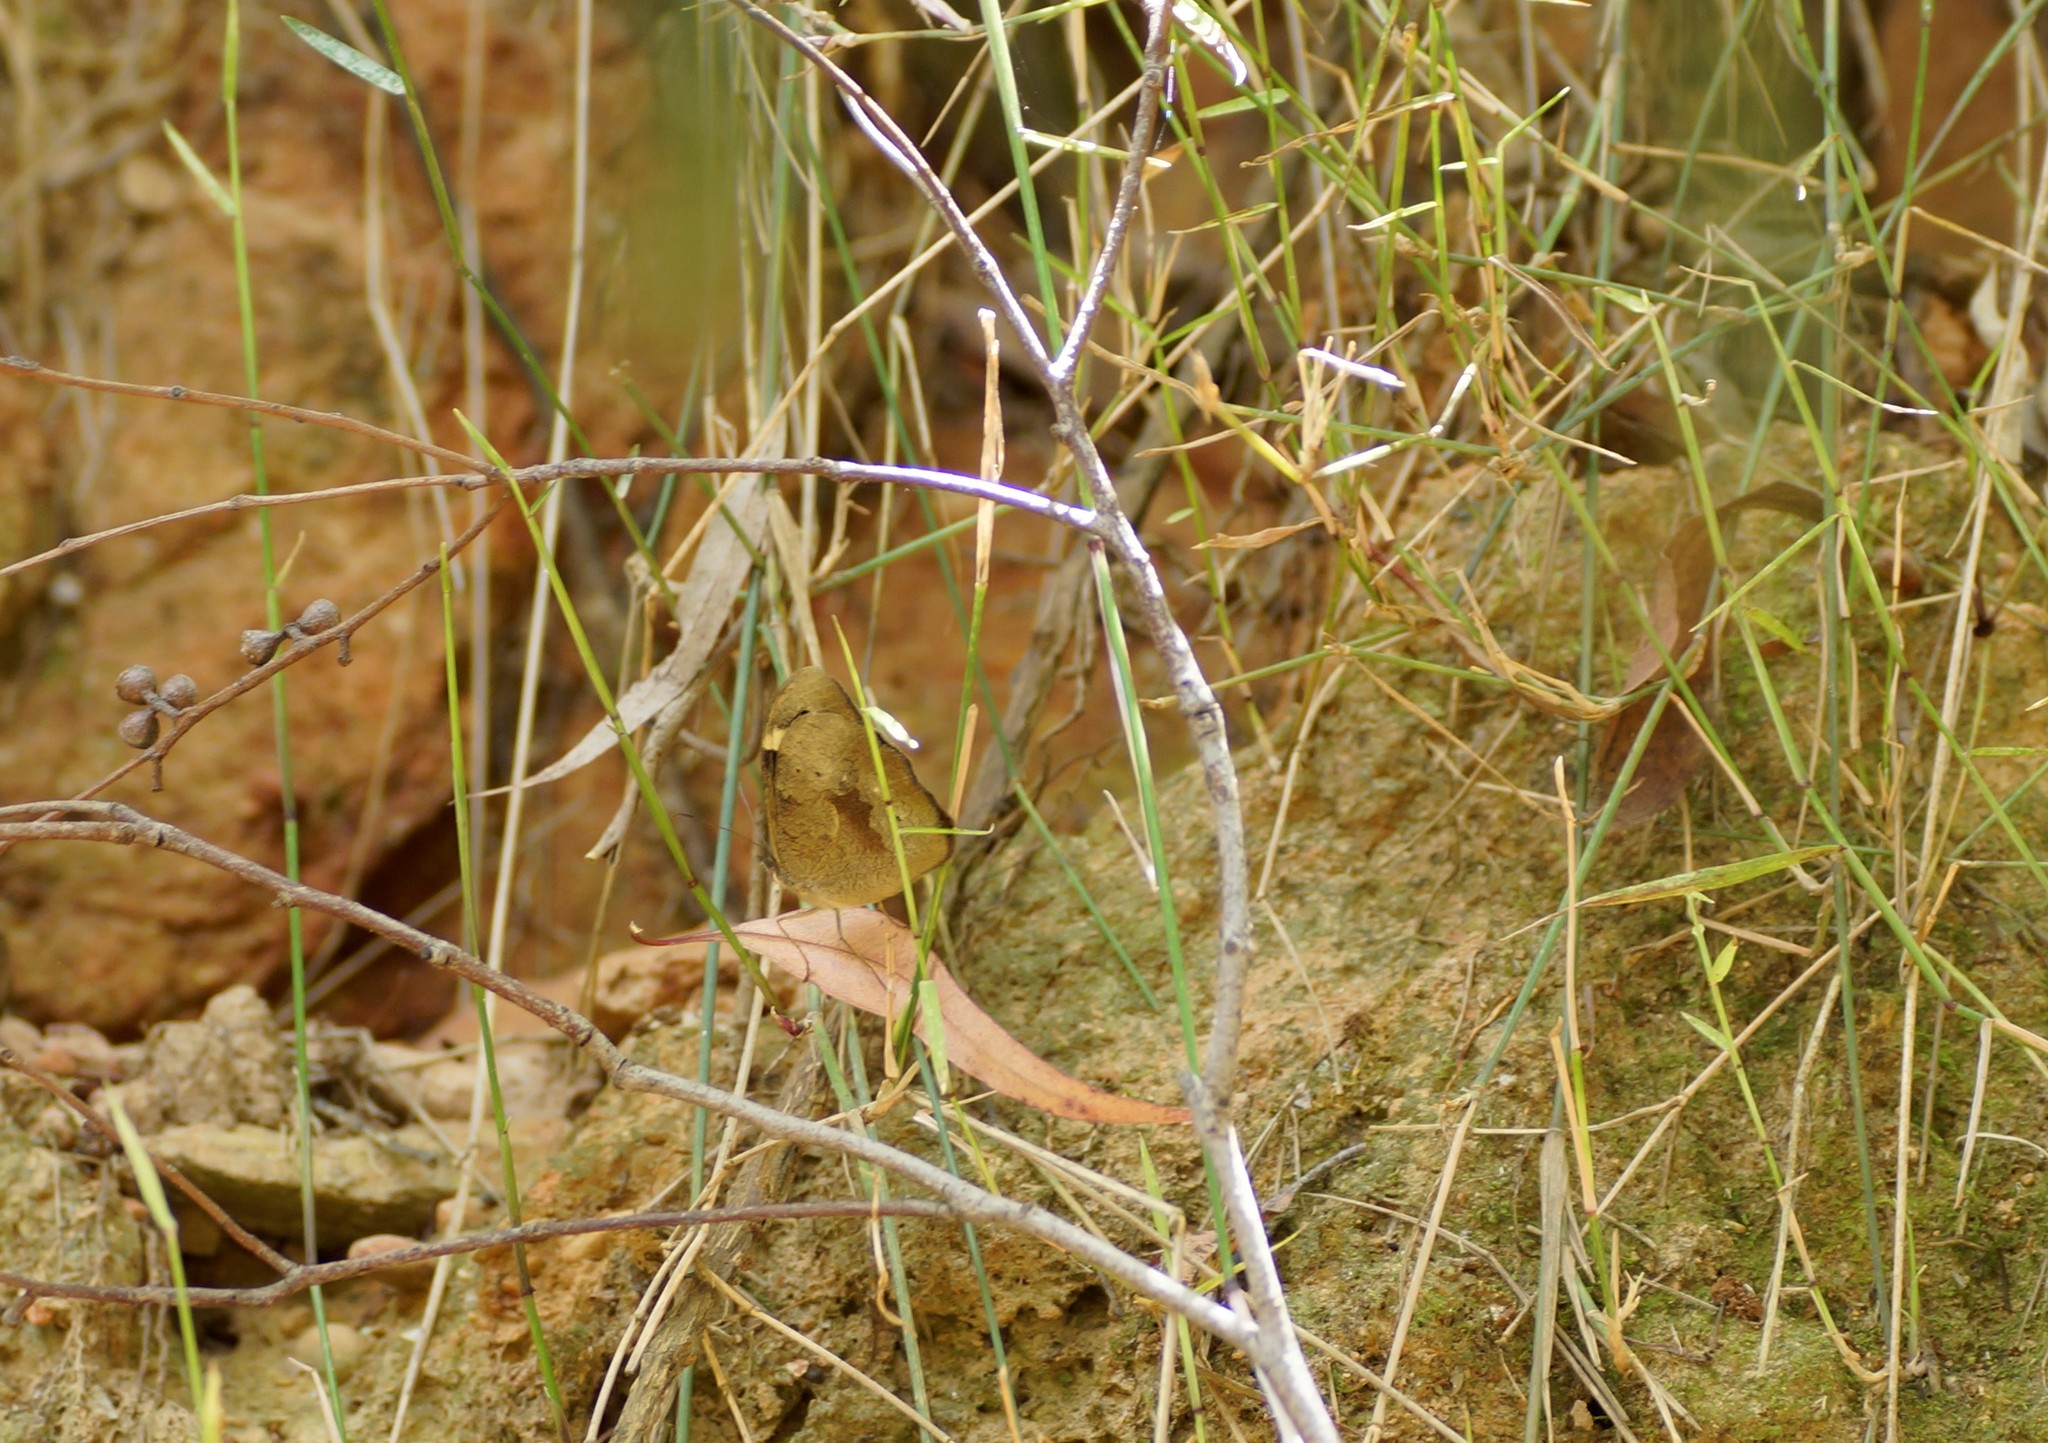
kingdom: Animalia
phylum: Arthropoda
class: Insecta
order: Lepidoptera
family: Nymphalidae
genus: Heteronympha
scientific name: Heteronympha merope
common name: Common brown
